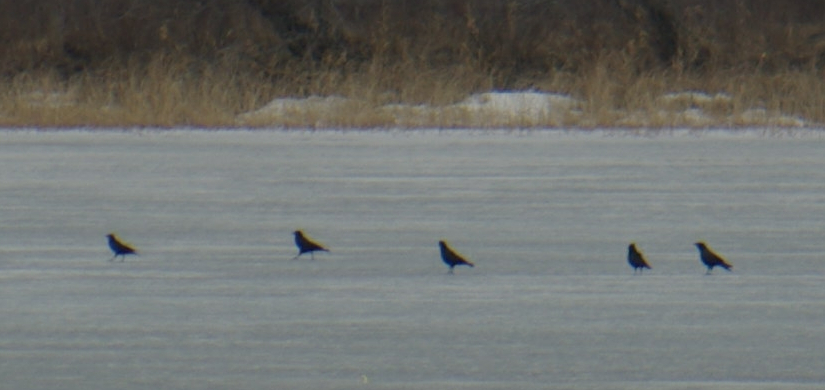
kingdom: Animalia
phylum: Chordata
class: Aves
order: Passeriformes
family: Corvidae
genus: Corvus
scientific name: Corvus brachyrhynchos
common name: American crow
